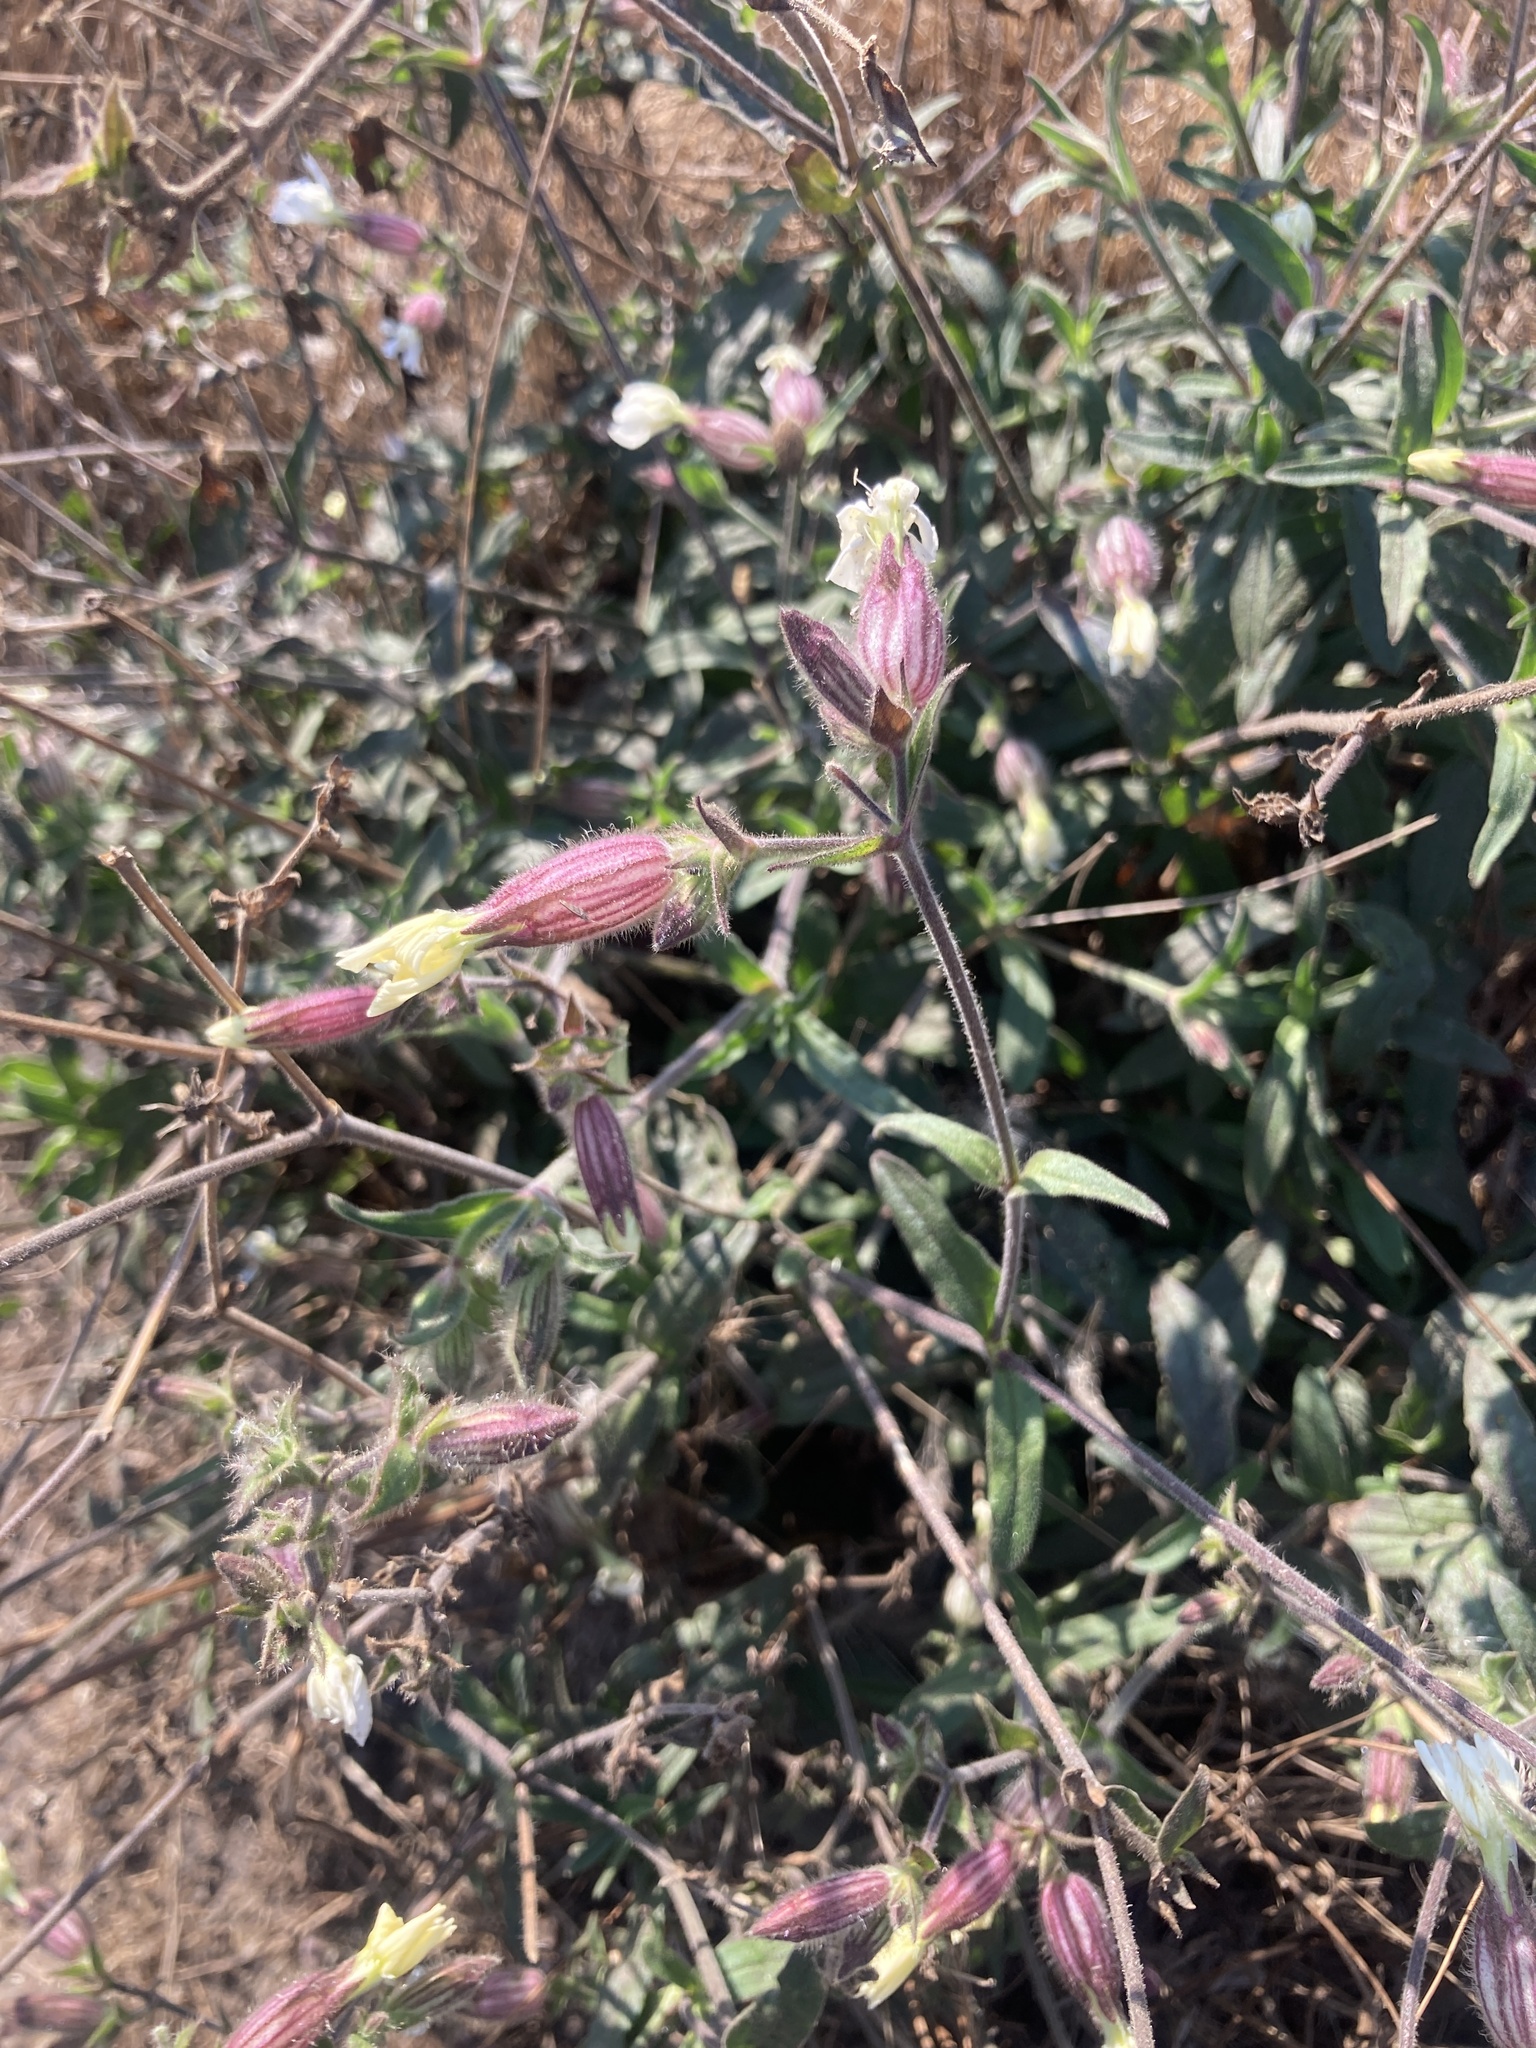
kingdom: Plantae
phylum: Tracheophyta
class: Magnoliopsida
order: Caryophyllales
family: Caryophyllaceae
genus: Silene
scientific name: Silene latifolia
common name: White campion
